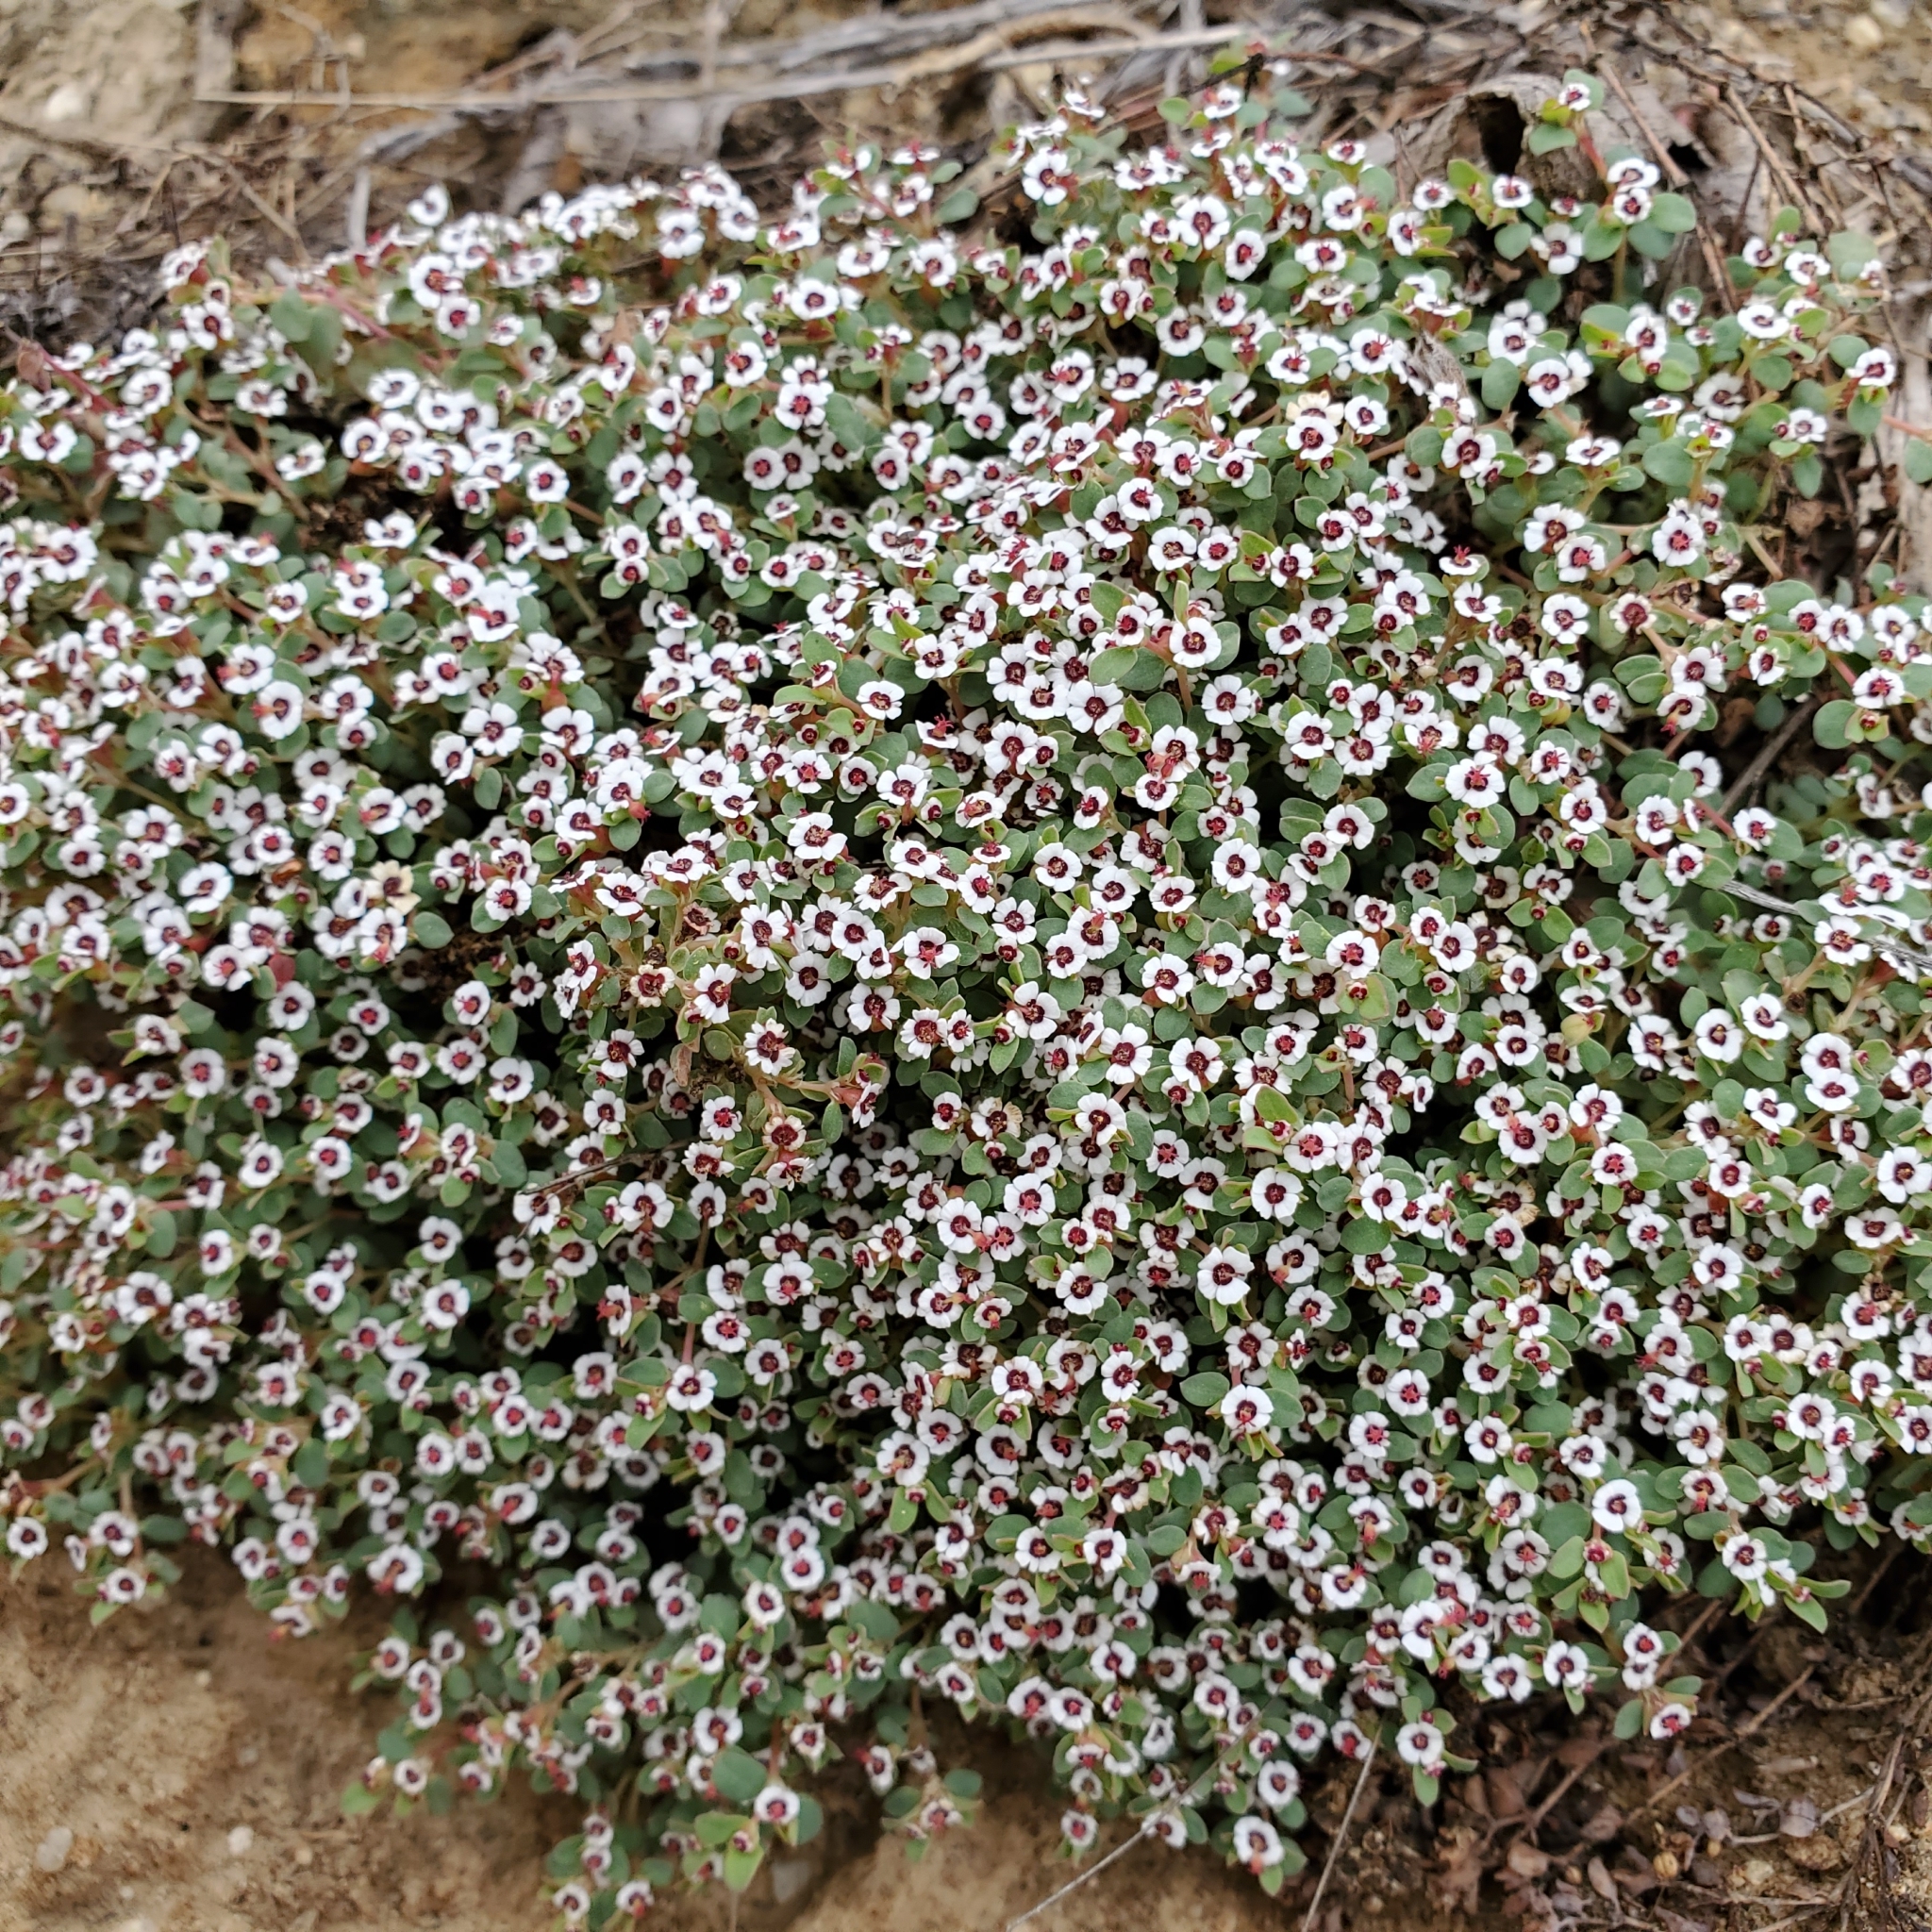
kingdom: Plantae
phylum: Tracheophyta
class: Magnoliopsida
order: Malpighiales
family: Euphorbiaceae
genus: Euphorbia
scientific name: Euphorbia polycarpa
